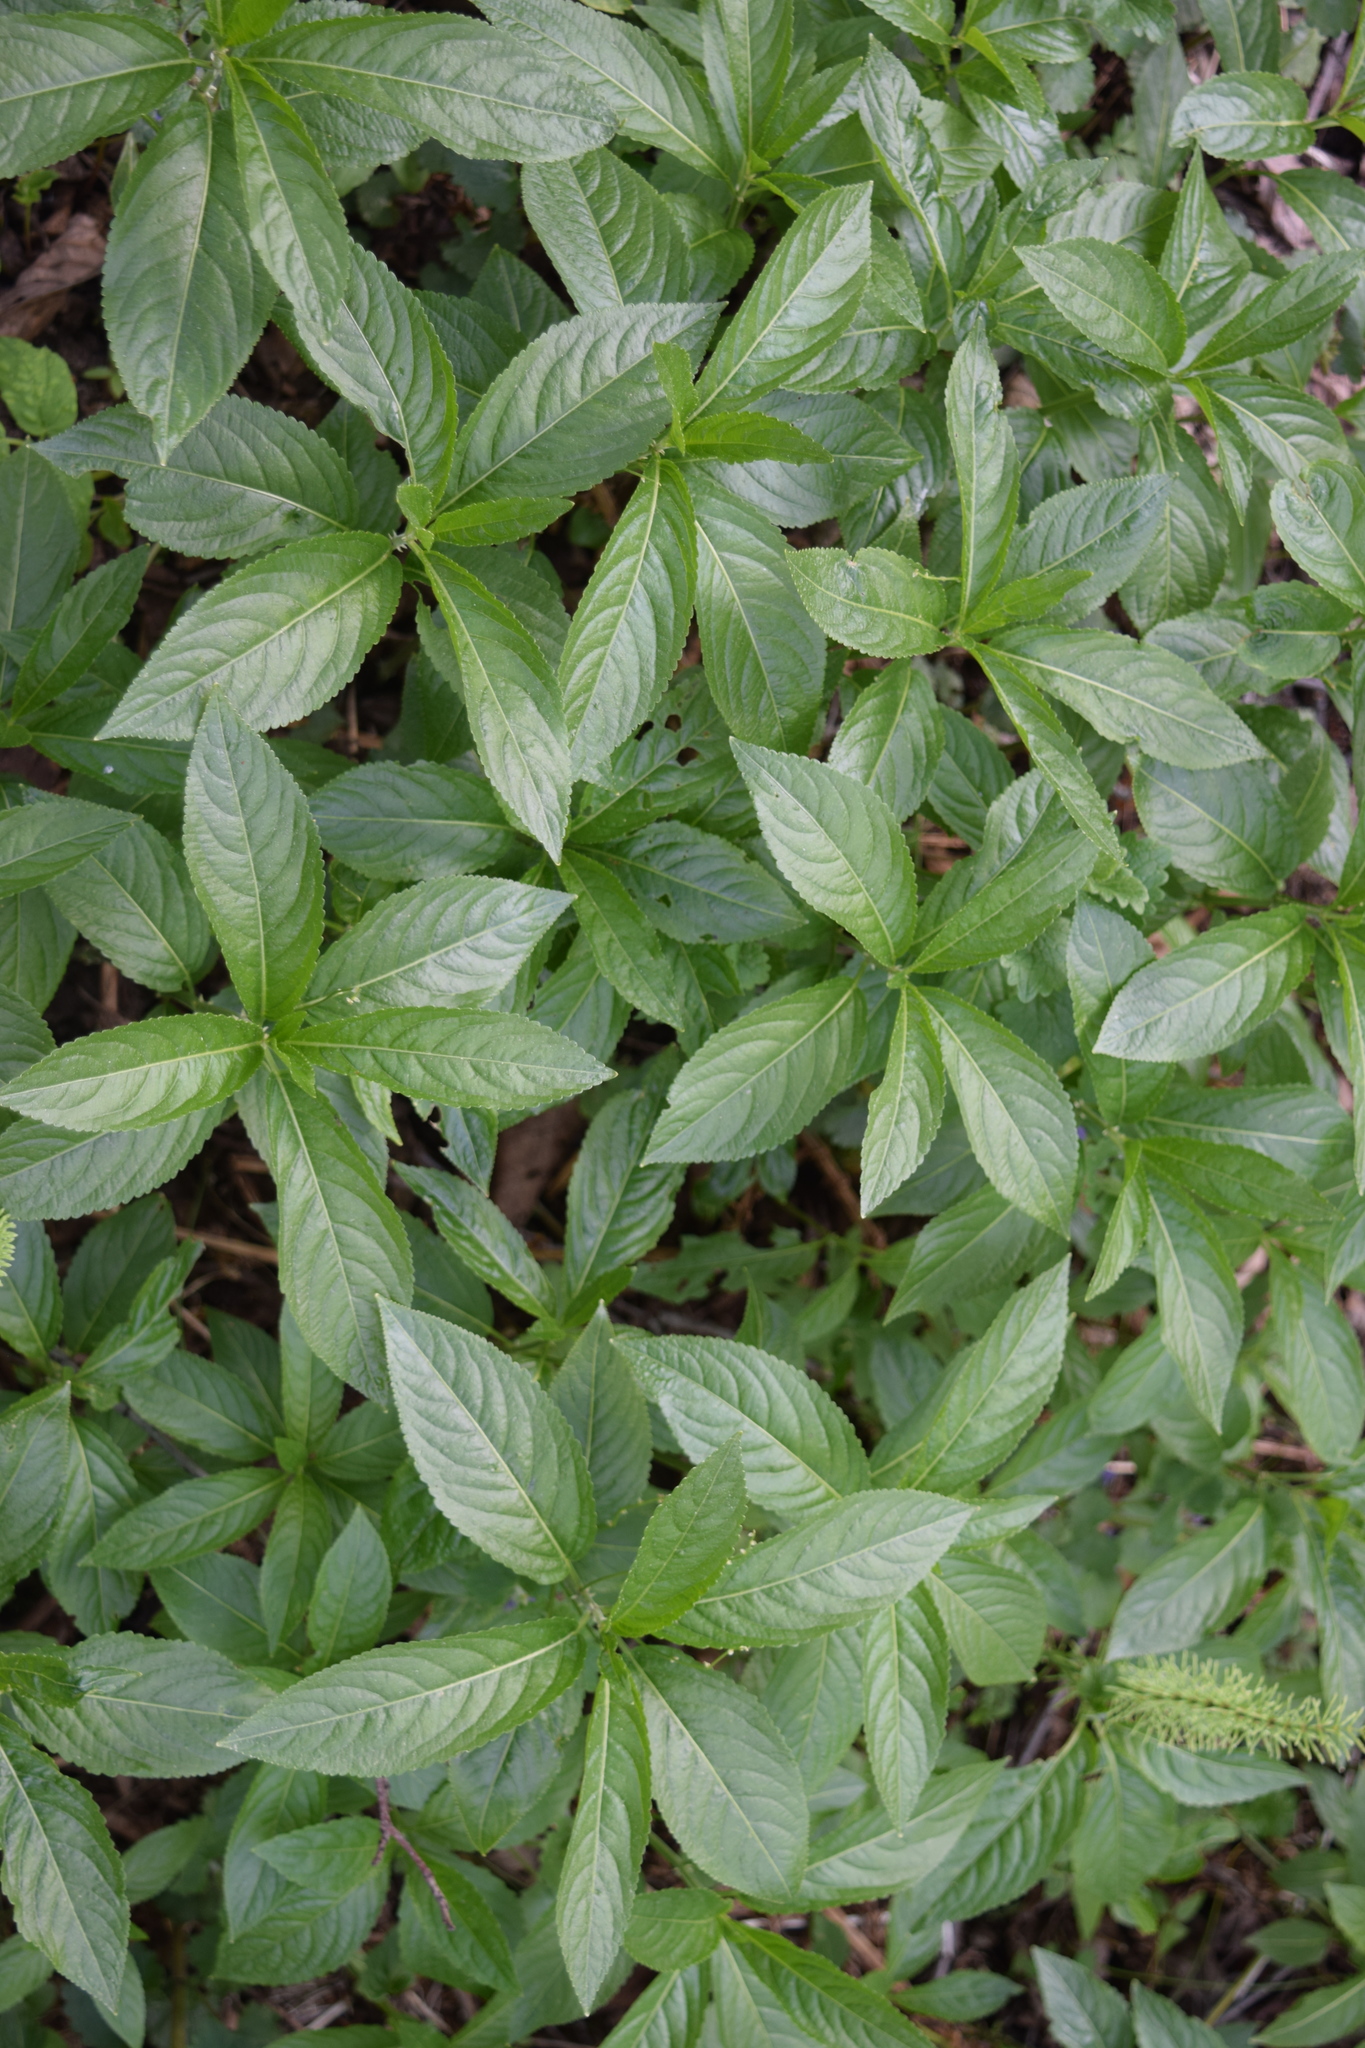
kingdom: Plantae
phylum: Tracheophyta
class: Magnoliopsida
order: Malpighiales
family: Euphorbiaceae
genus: Mercurialis
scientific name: Mercurialis perennis
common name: Dog mercury
